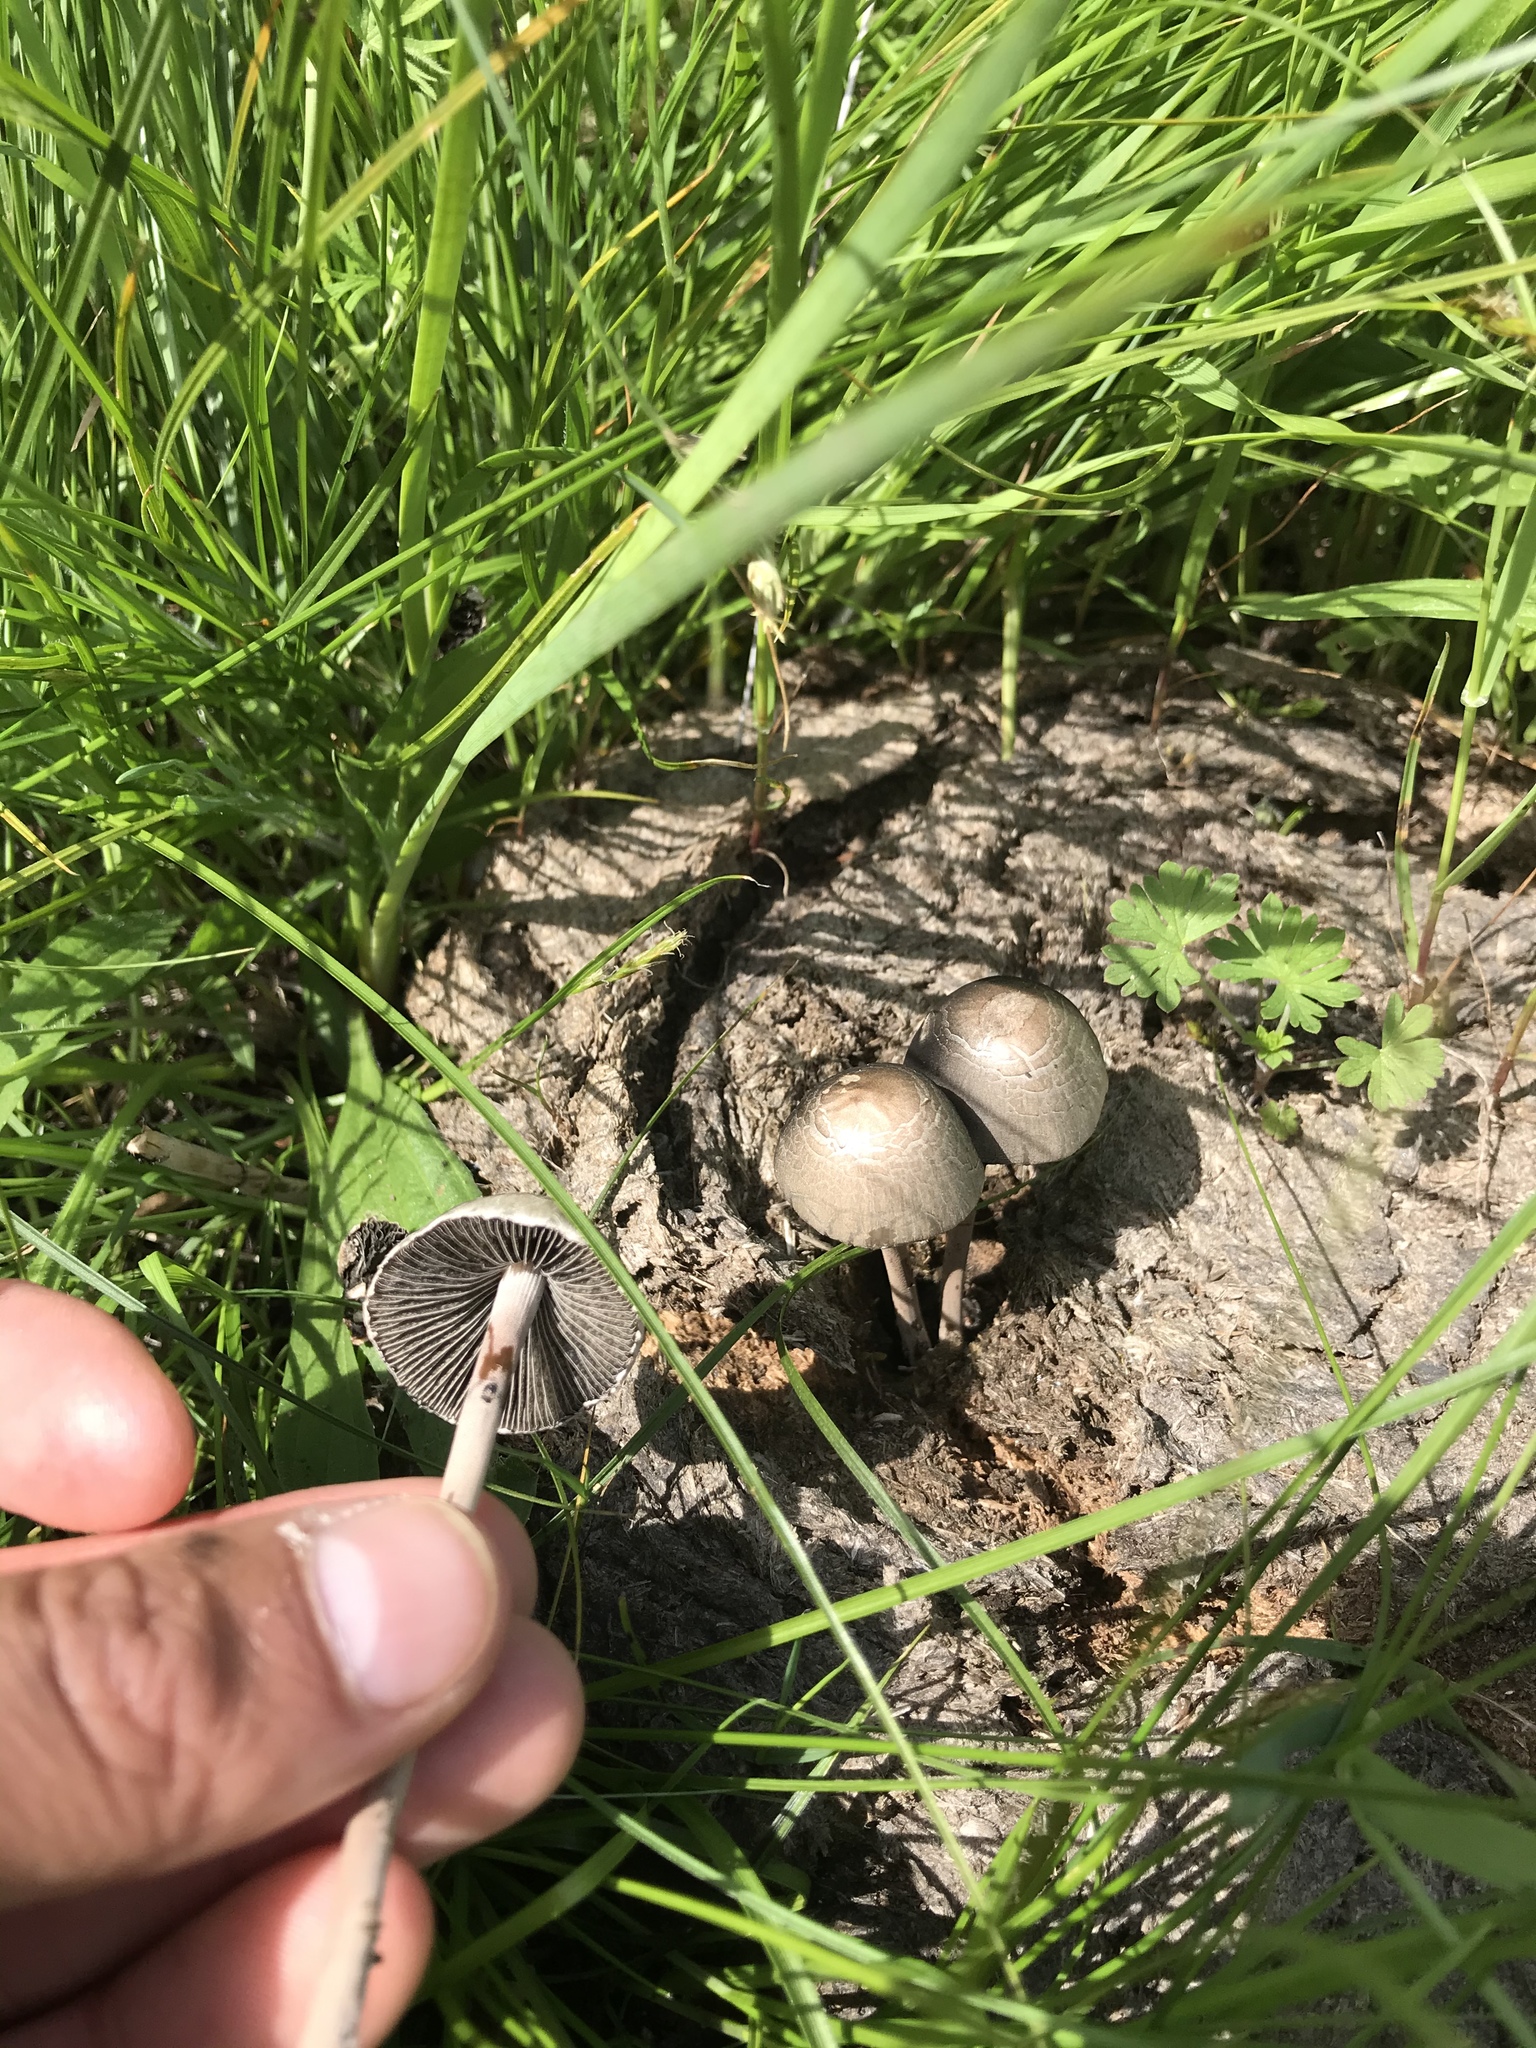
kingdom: Fungi
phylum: Basidiomycota
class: Agaricomycetes
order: Agaricales
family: Bolbitiaceae
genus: Panaeolus
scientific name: Panaeolus papilionaceus
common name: Petticoat mottlegill
